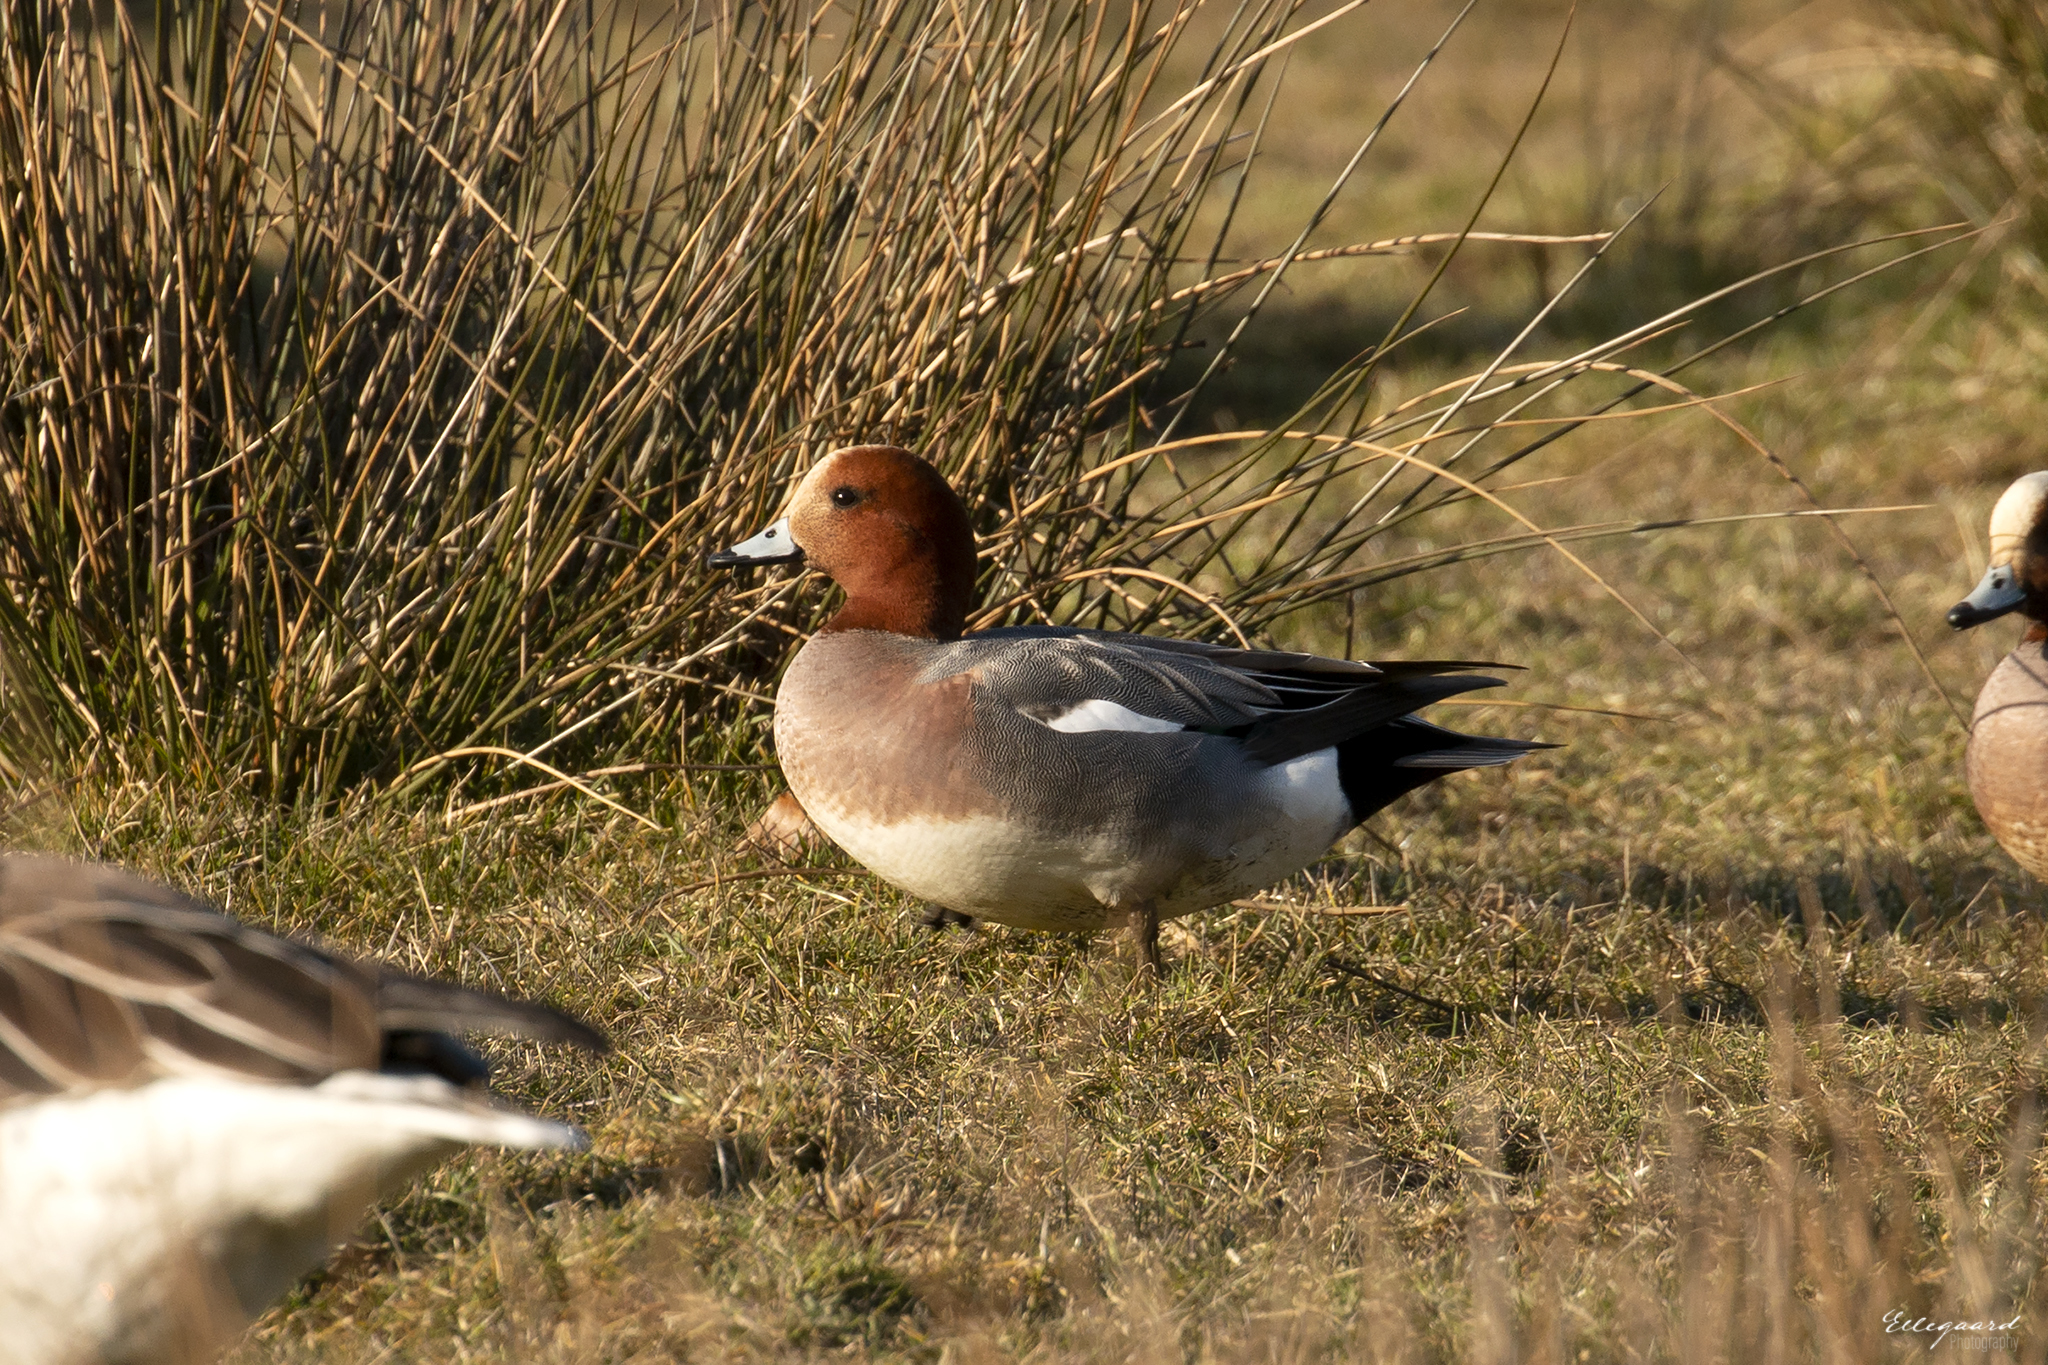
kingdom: Animalia
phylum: Chordata
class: Aves
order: Anseriformes
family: Anatidae
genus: Mareca
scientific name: Mareca penelope
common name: Eurasian wigeon
